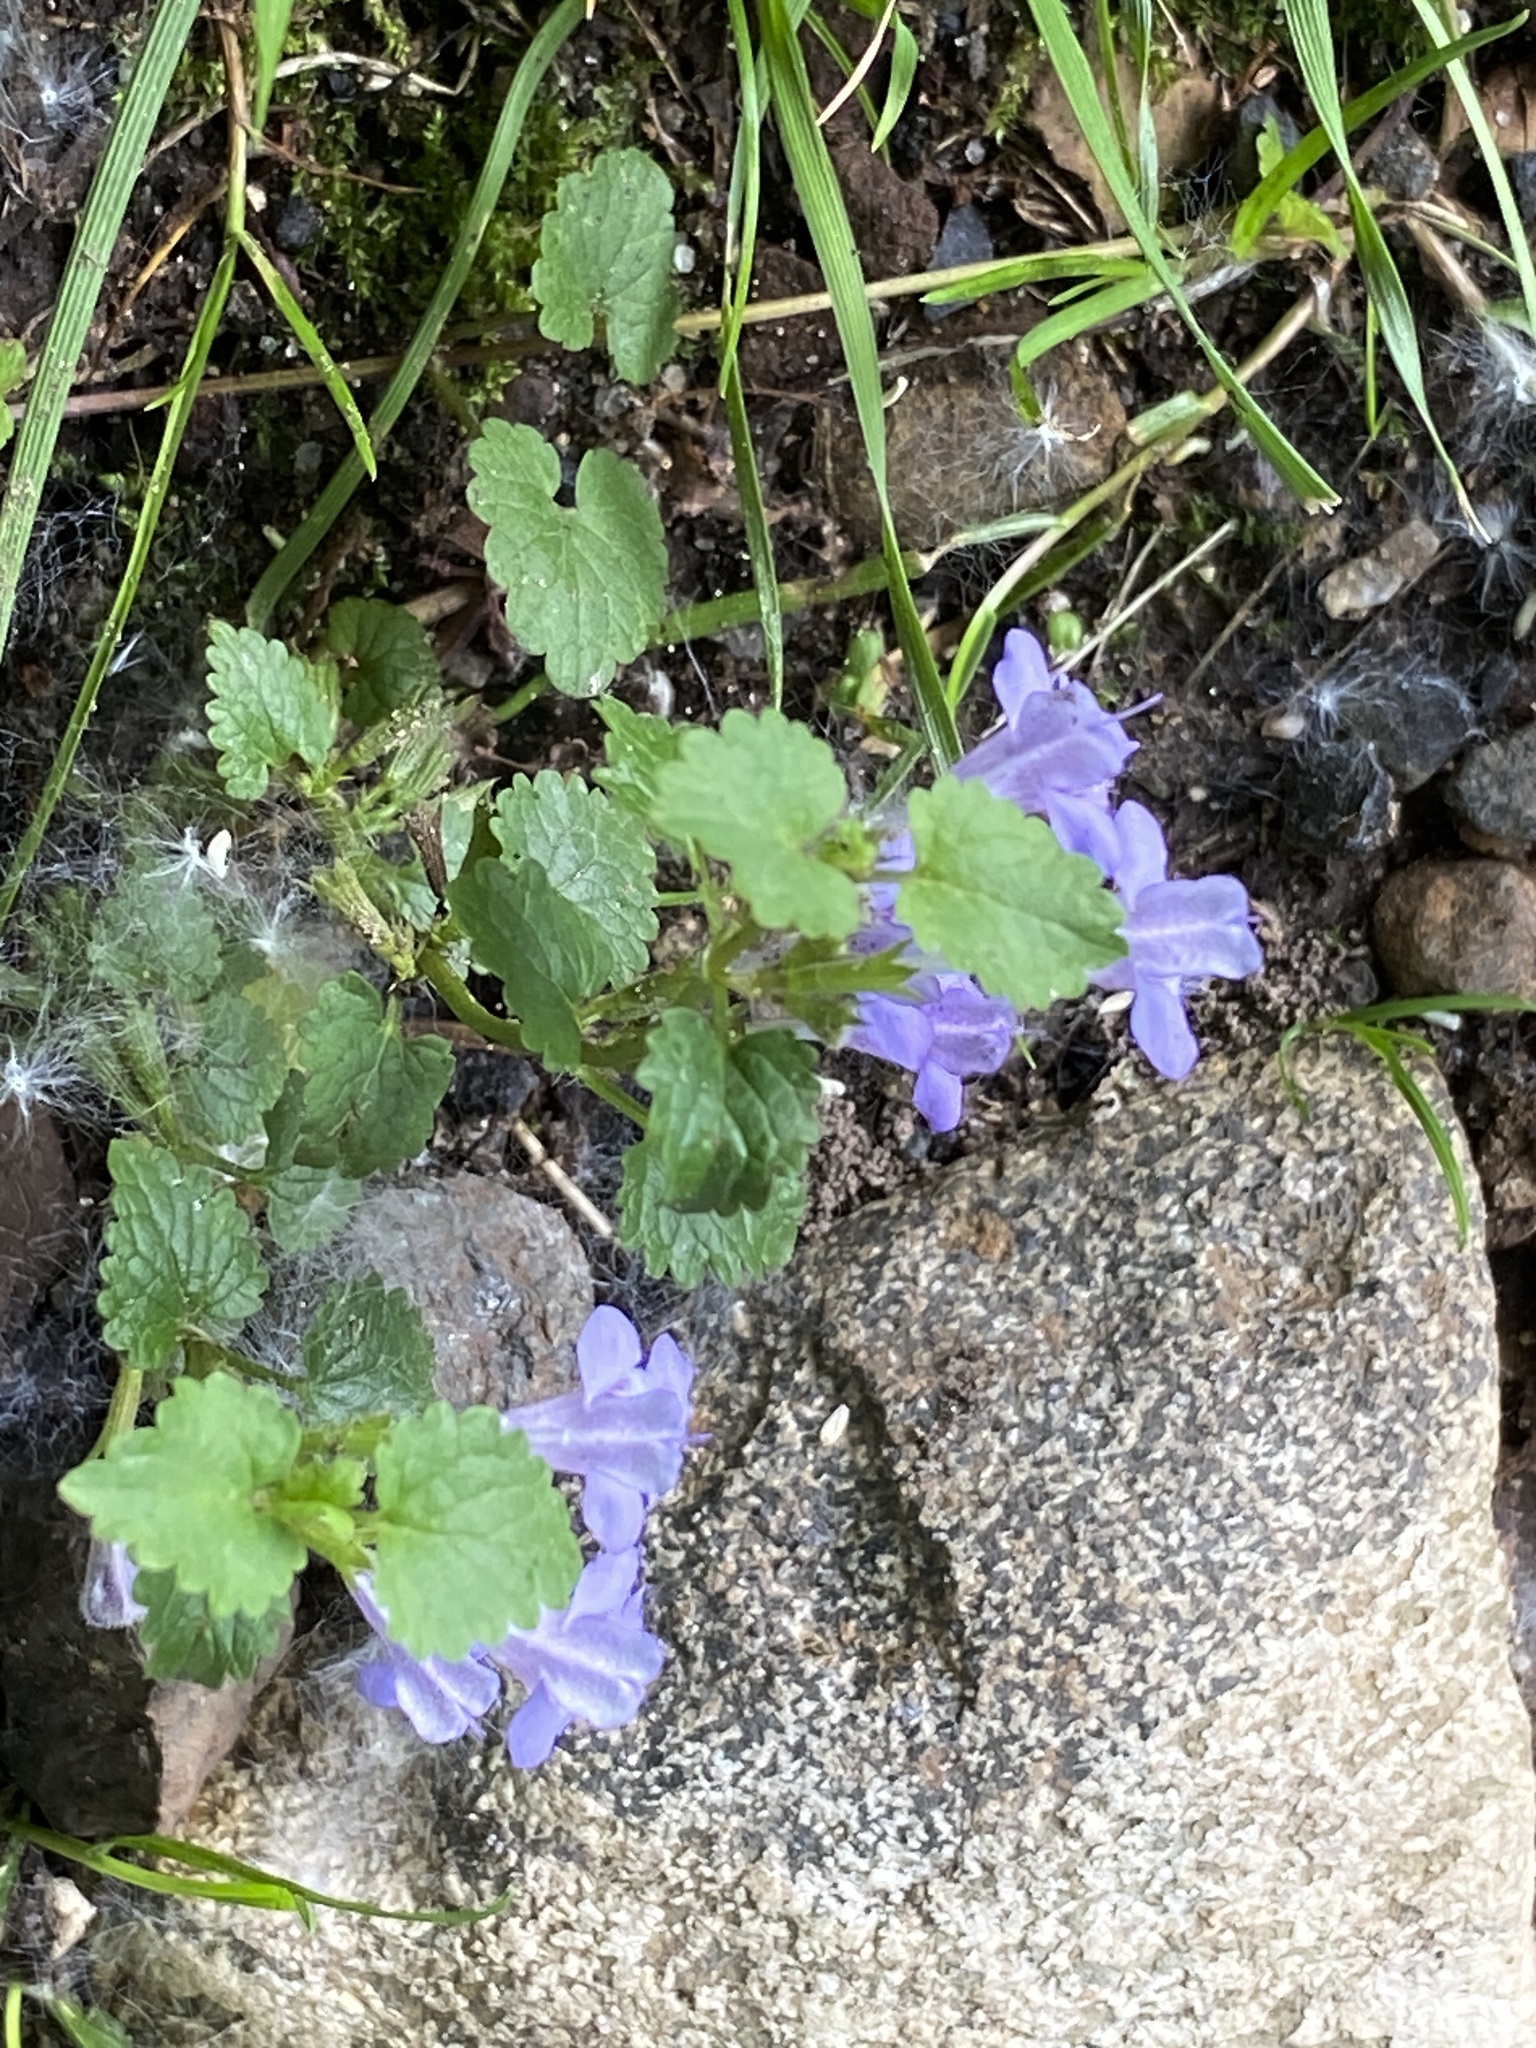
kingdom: Plantae
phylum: Tracheophyta
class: Magnoliopsida
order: Lamiales
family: Lamiaceae
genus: Glechoma
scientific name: Glechoma hederacea
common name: Ground ivy
